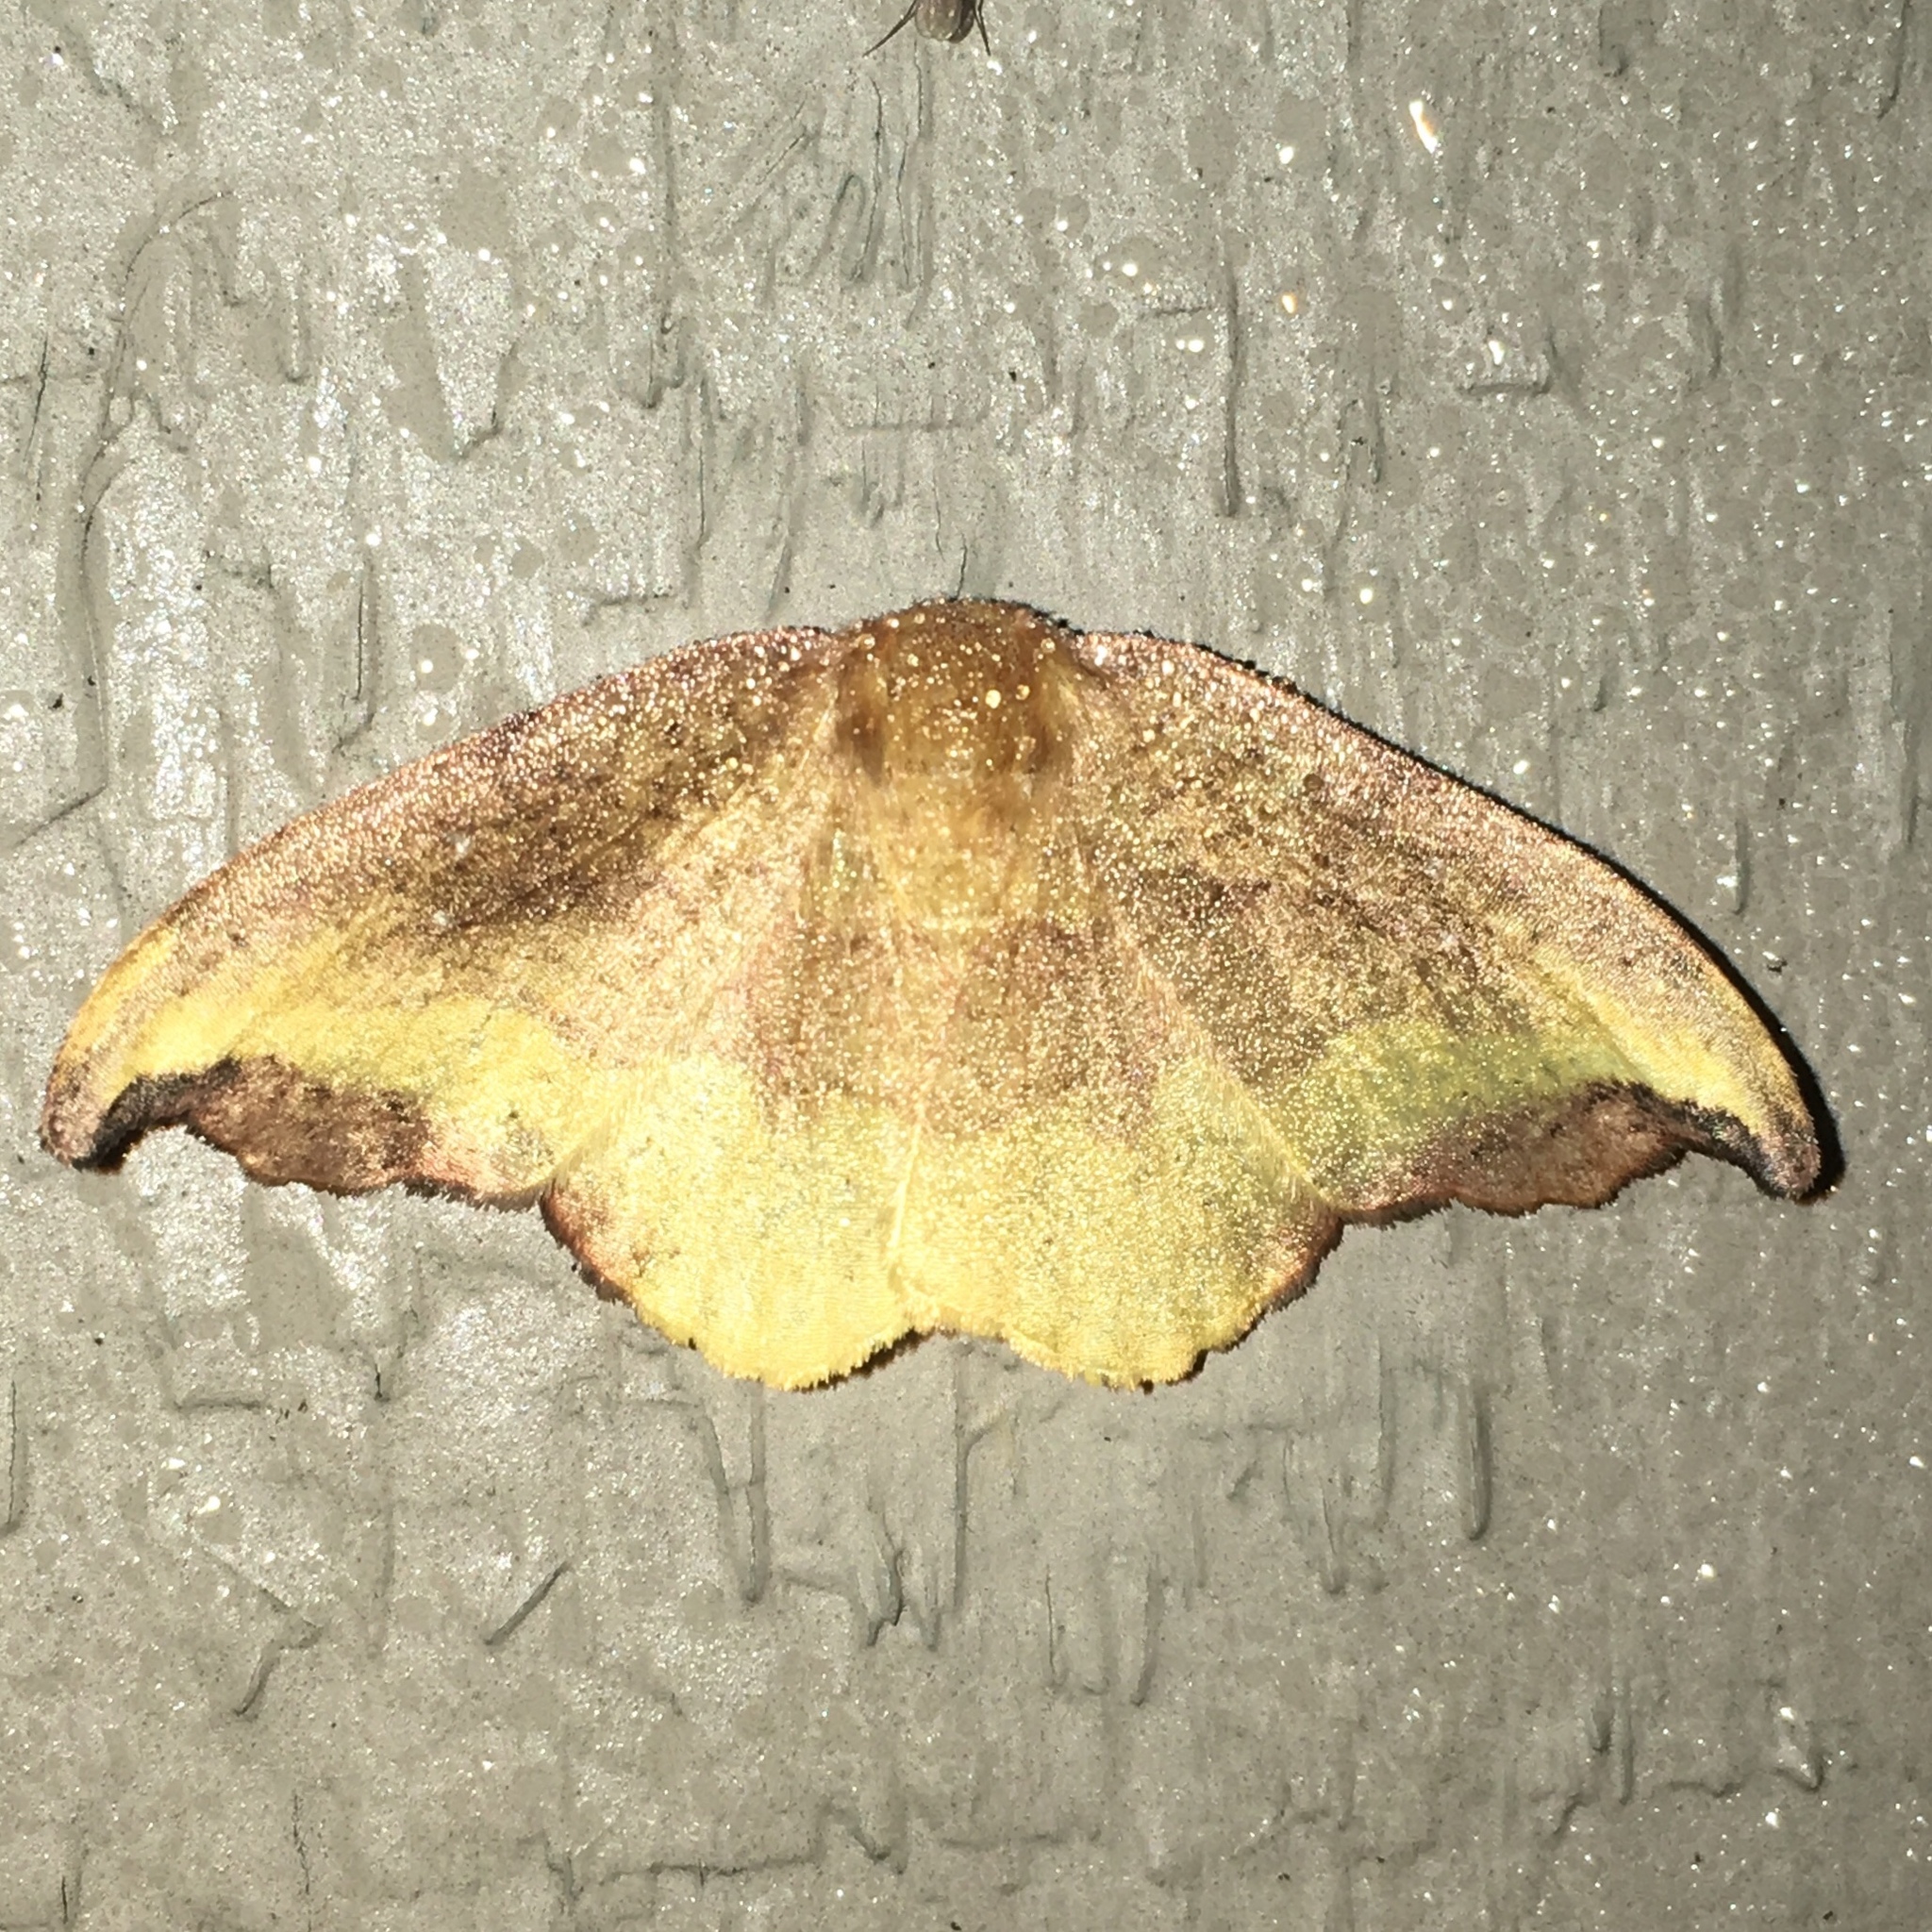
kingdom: Animalia
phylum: Arthropoda
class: Insecta
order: Lepidoptera
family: Drepanidae
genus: Oreta
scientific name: Oreta rosea
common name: Rose hooktip
